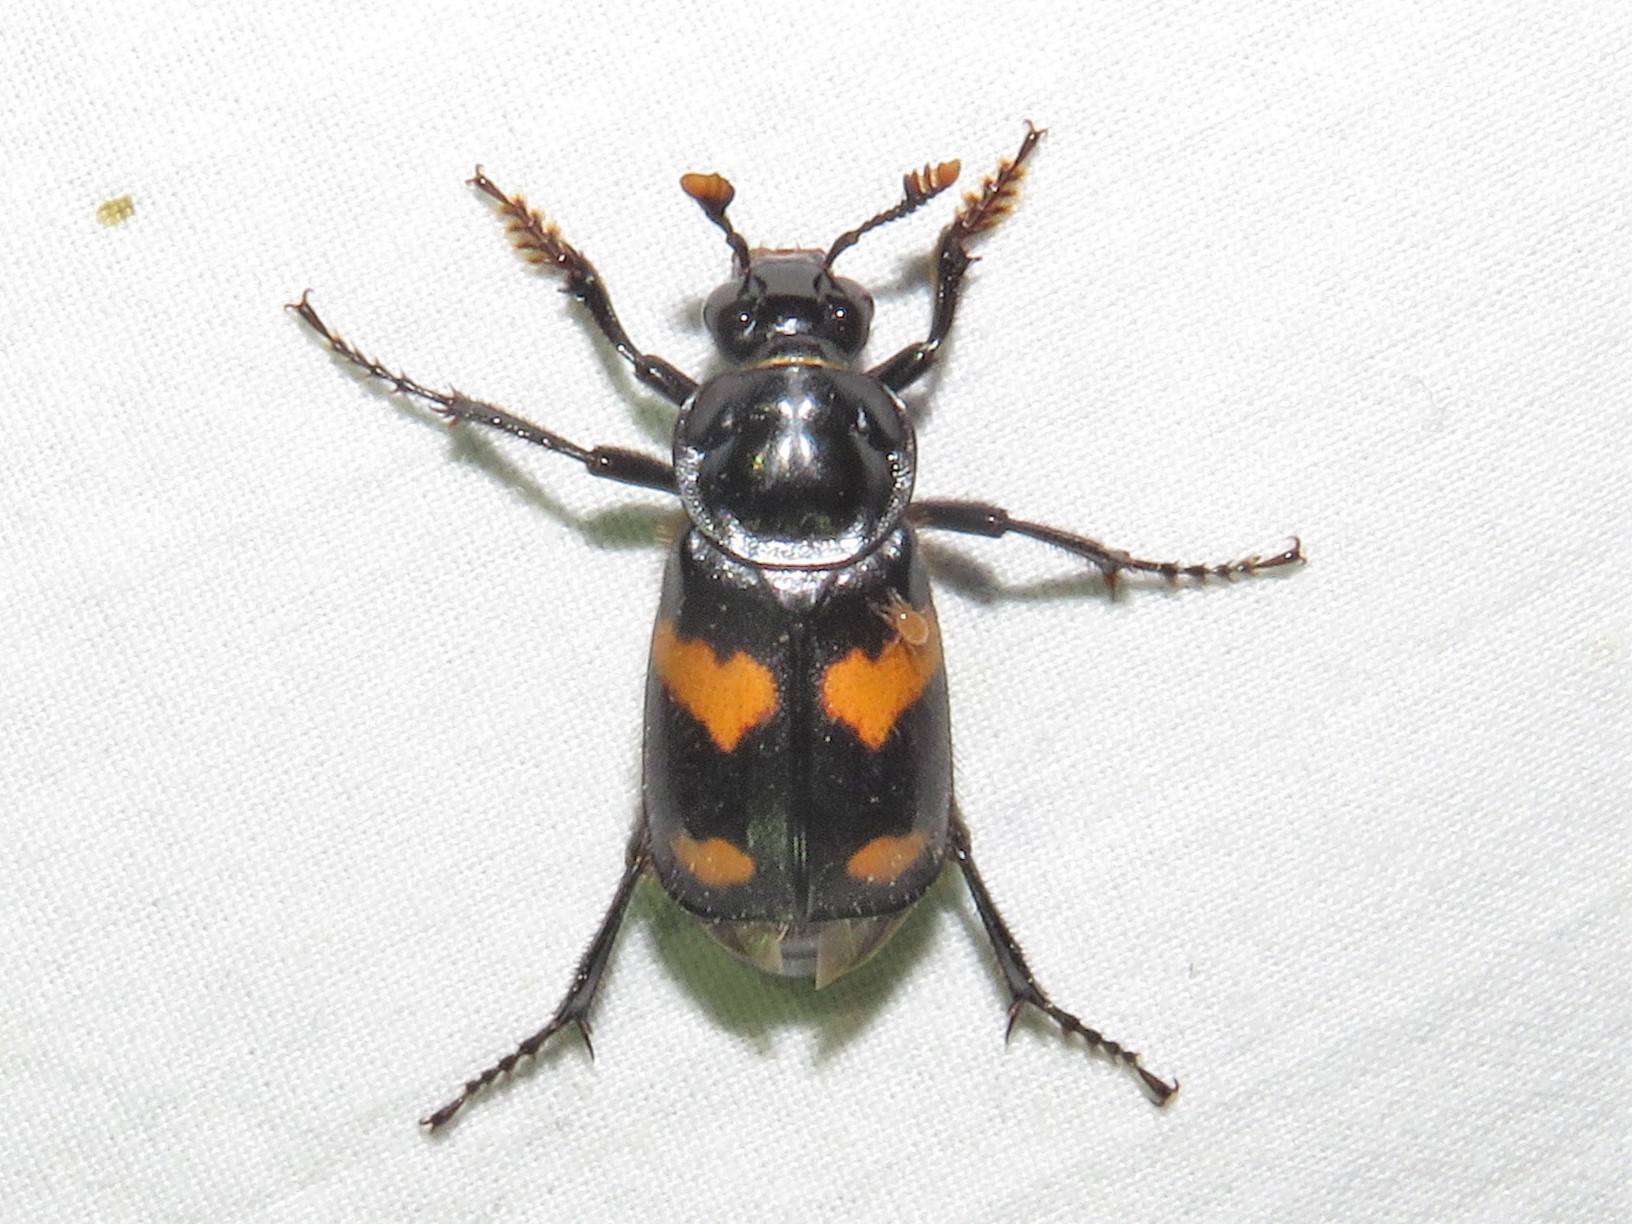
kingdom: Animalia
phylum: Arthropoda
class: Insecta
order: Coleoptera
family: Staphylinidae
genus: Nicrophorus
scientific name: Nicrophorus orbicollis
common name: Roundneck sexton beetle
